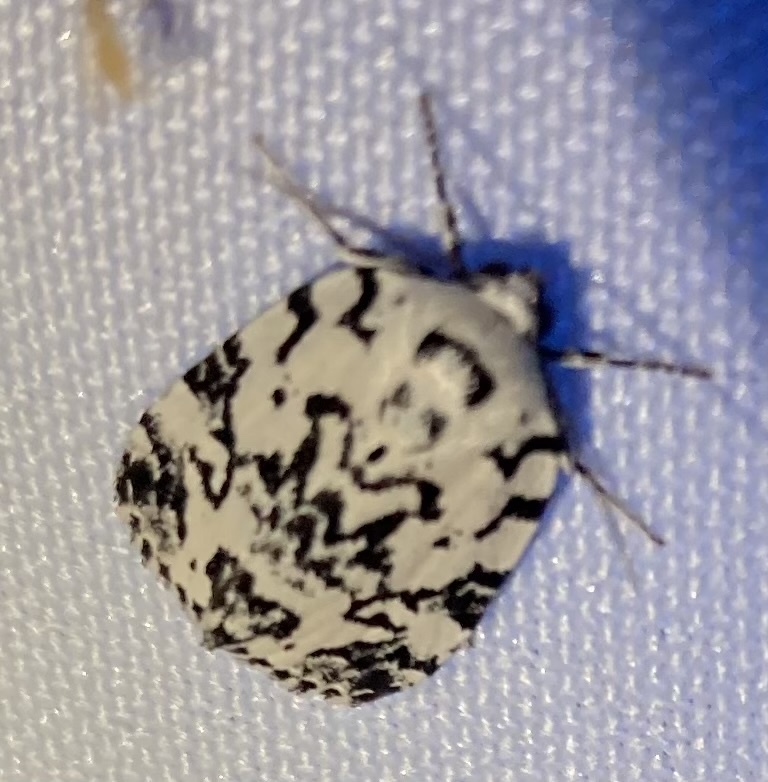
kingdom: Animalia
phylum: Arthropoda
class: Insecta
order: Lepidoptera
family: Noctuidae
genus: Polygrammate
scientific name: Polygrammate hebraeicum
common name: Hebrew moth
